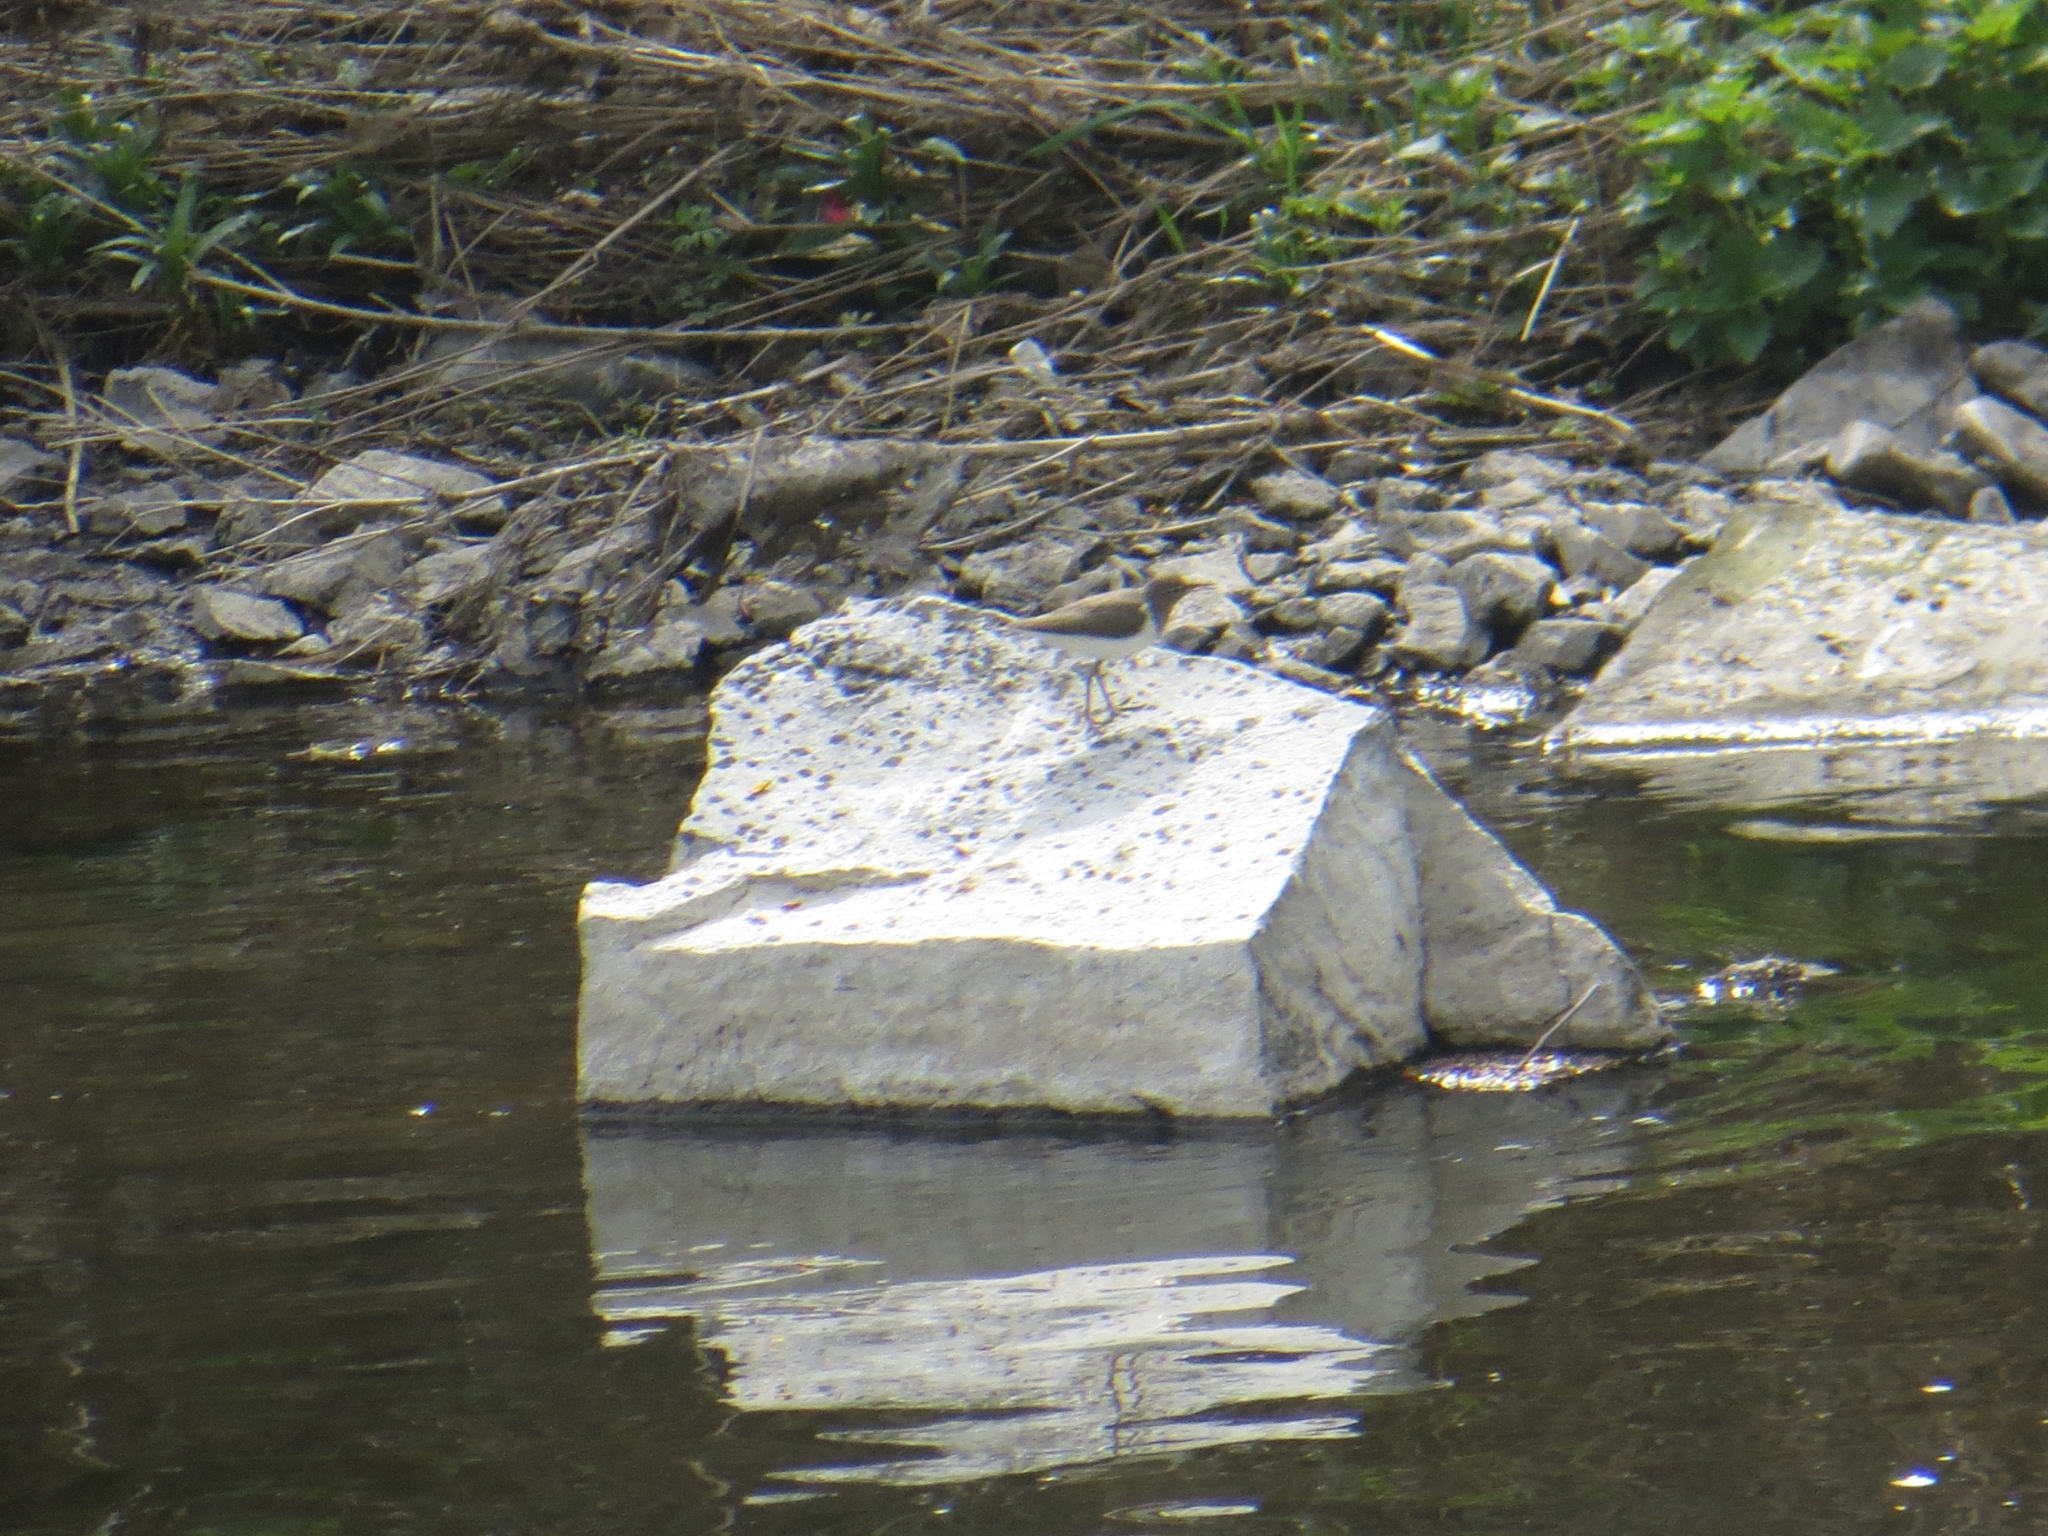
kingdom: Animalia
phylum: Chordata
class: Aves
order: Charadriiformes
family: Scolopacidae
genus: Actitis
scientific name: Actitis hypoleucos
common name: Common sandpiper
